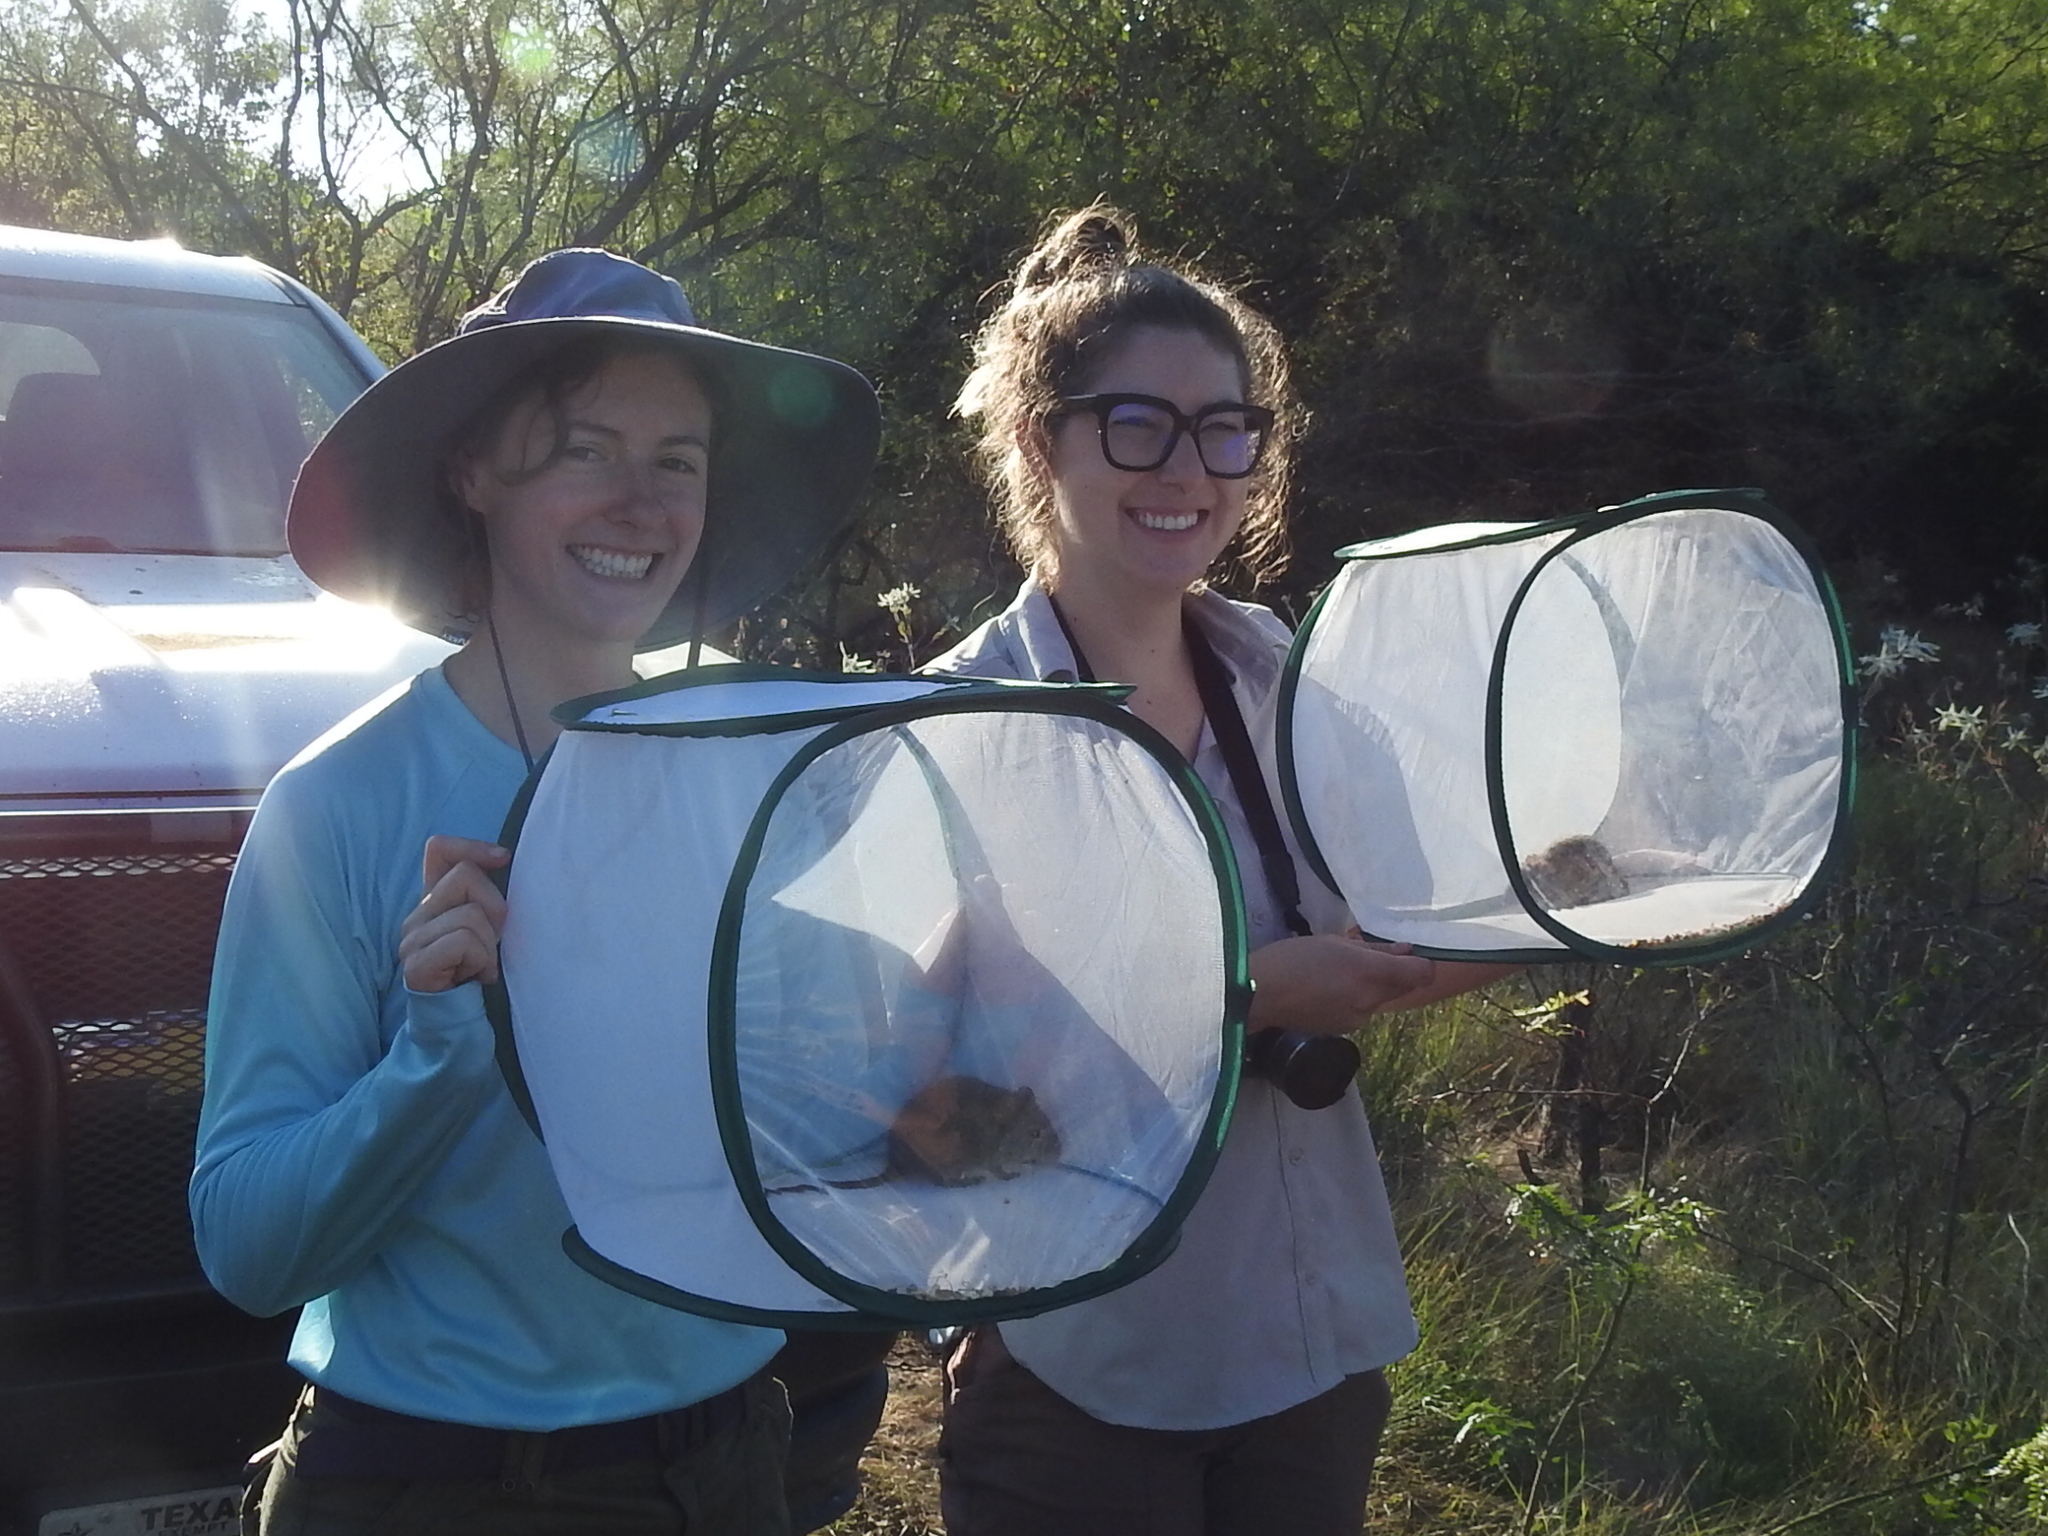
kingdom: Animalia
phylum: Chordata
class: Mammalia
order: Rodentia
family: Cricetidae
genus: Sigmodon
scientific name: Sigmodon hispidus
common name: Hispid cotton rat
